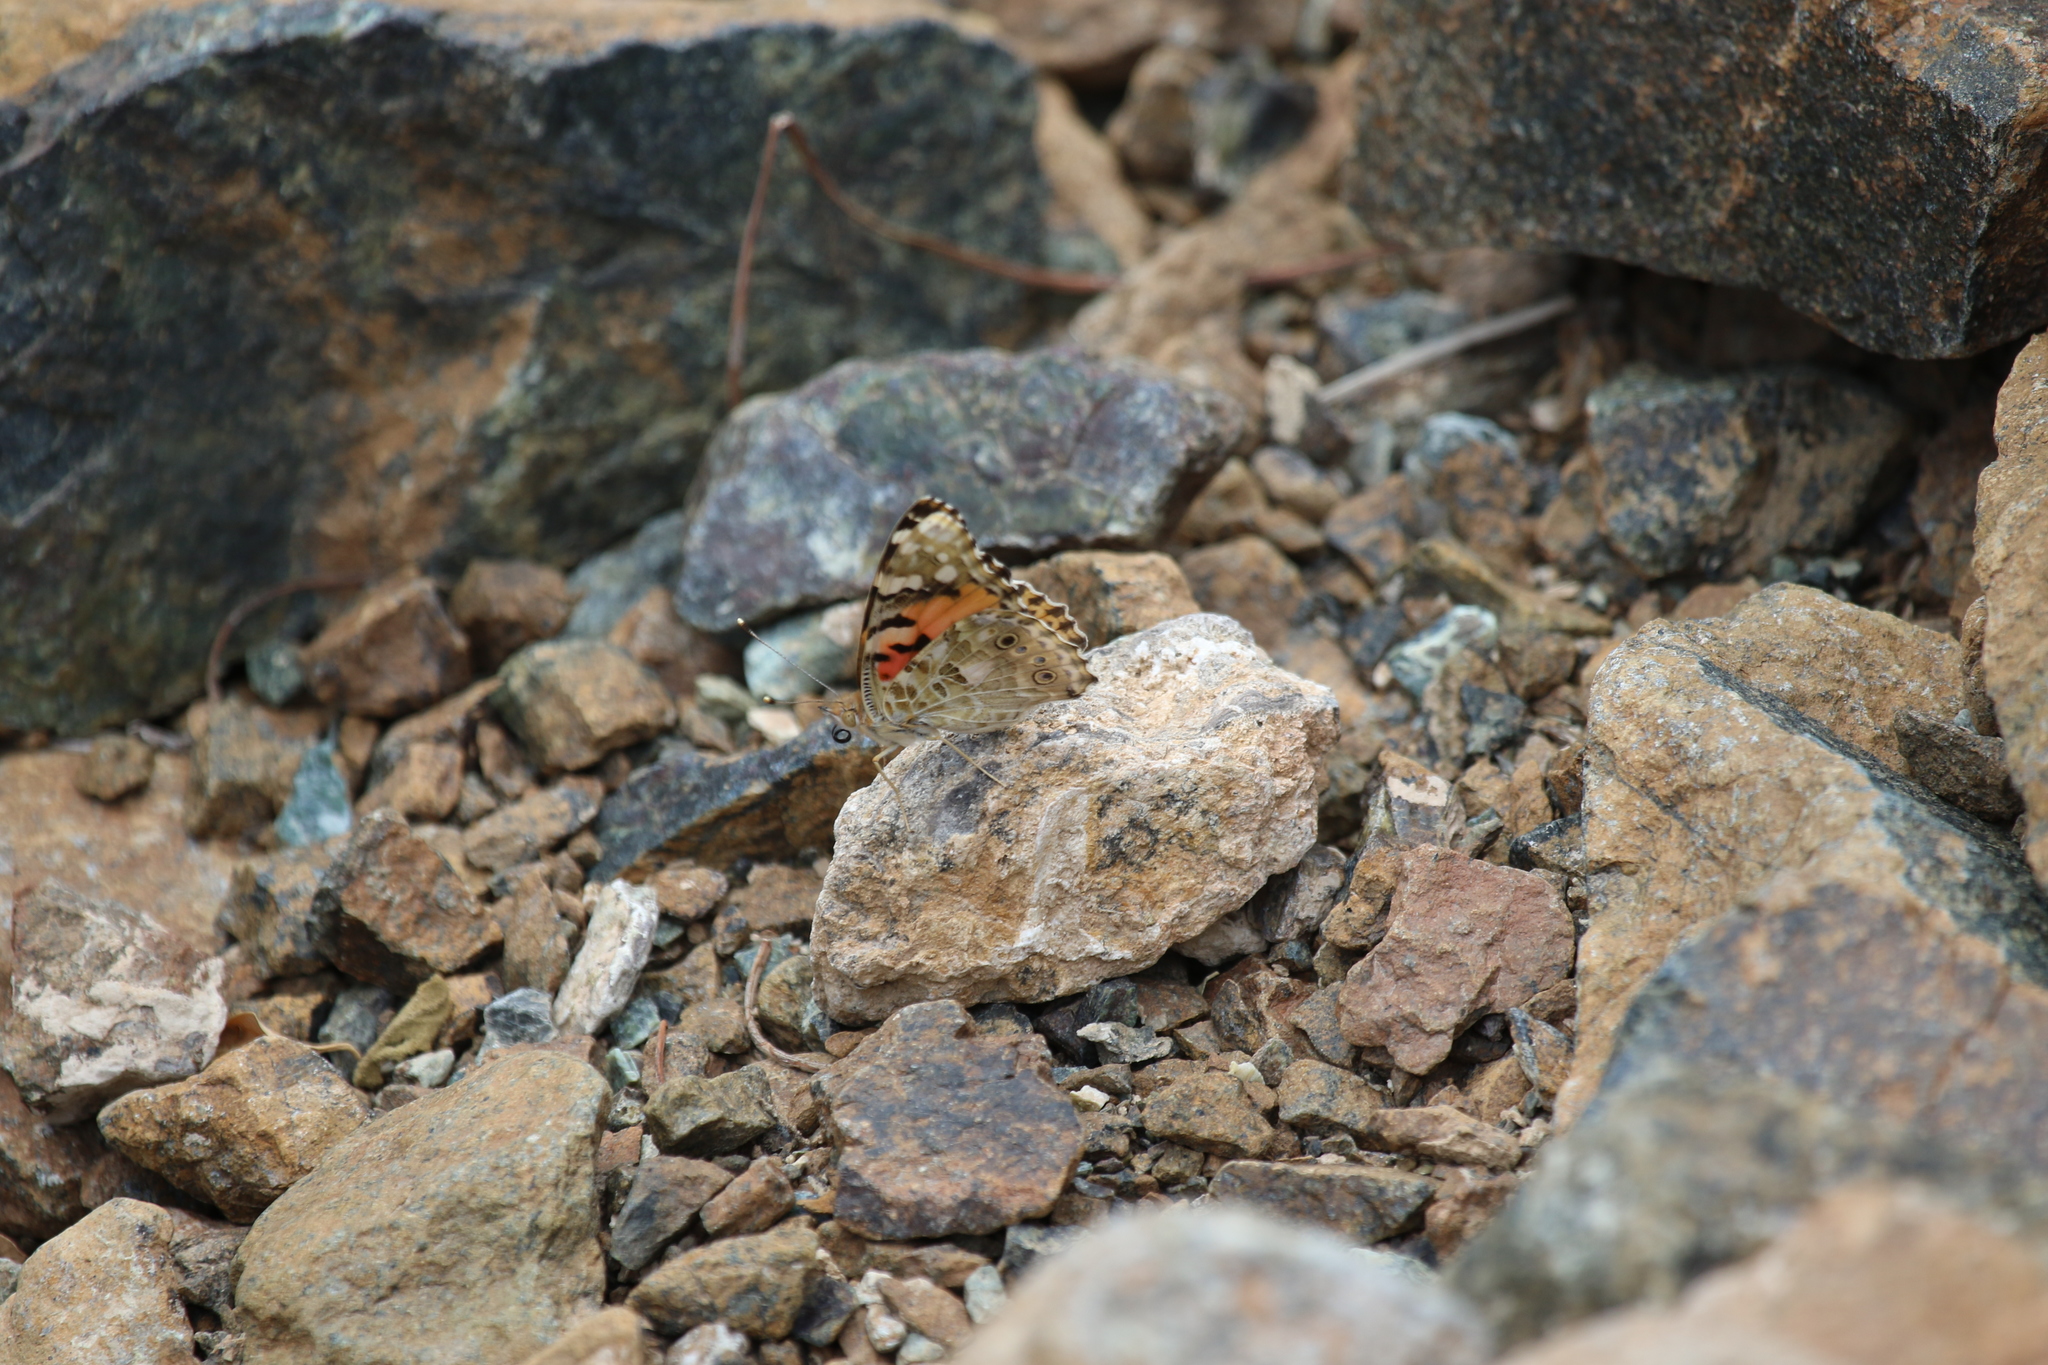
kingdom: Animalia
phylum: Arthropoda
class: Insecta
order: Lepidoptera
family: Nymphalidae
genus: Vanessa
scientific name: Vanessa cardui
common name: Painted lady
